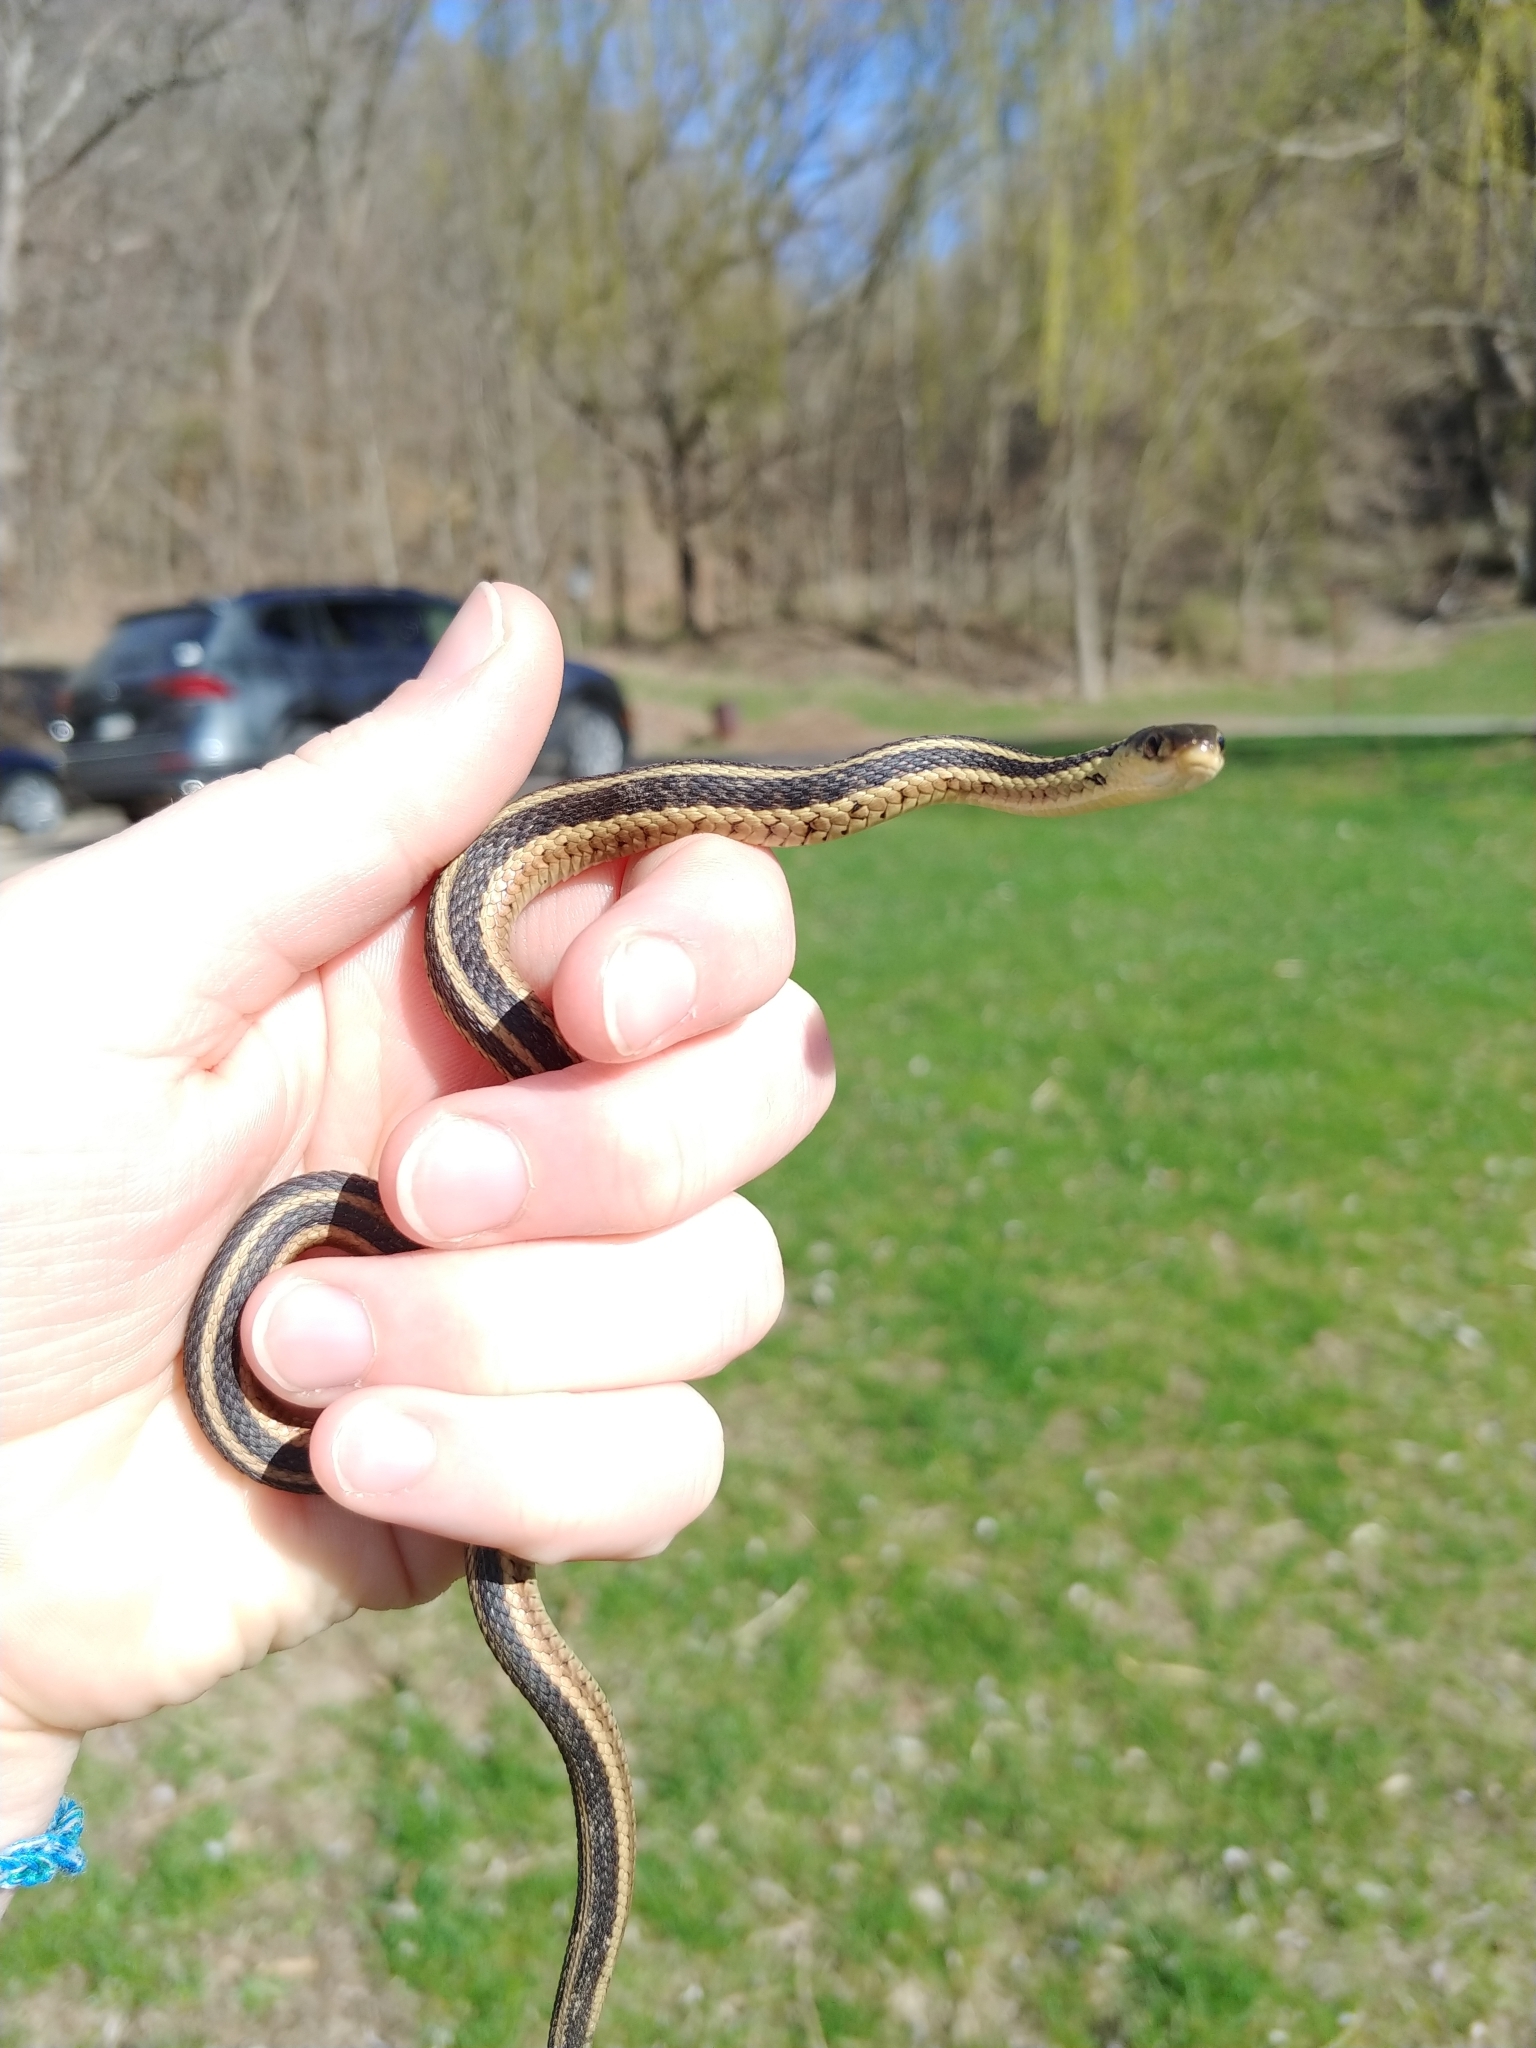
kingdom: Animalia
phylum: Chordata
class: Squamata
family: Colubridae
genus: Thamnophis
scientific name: Thamnophis sirtalis
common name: Common garter snake
